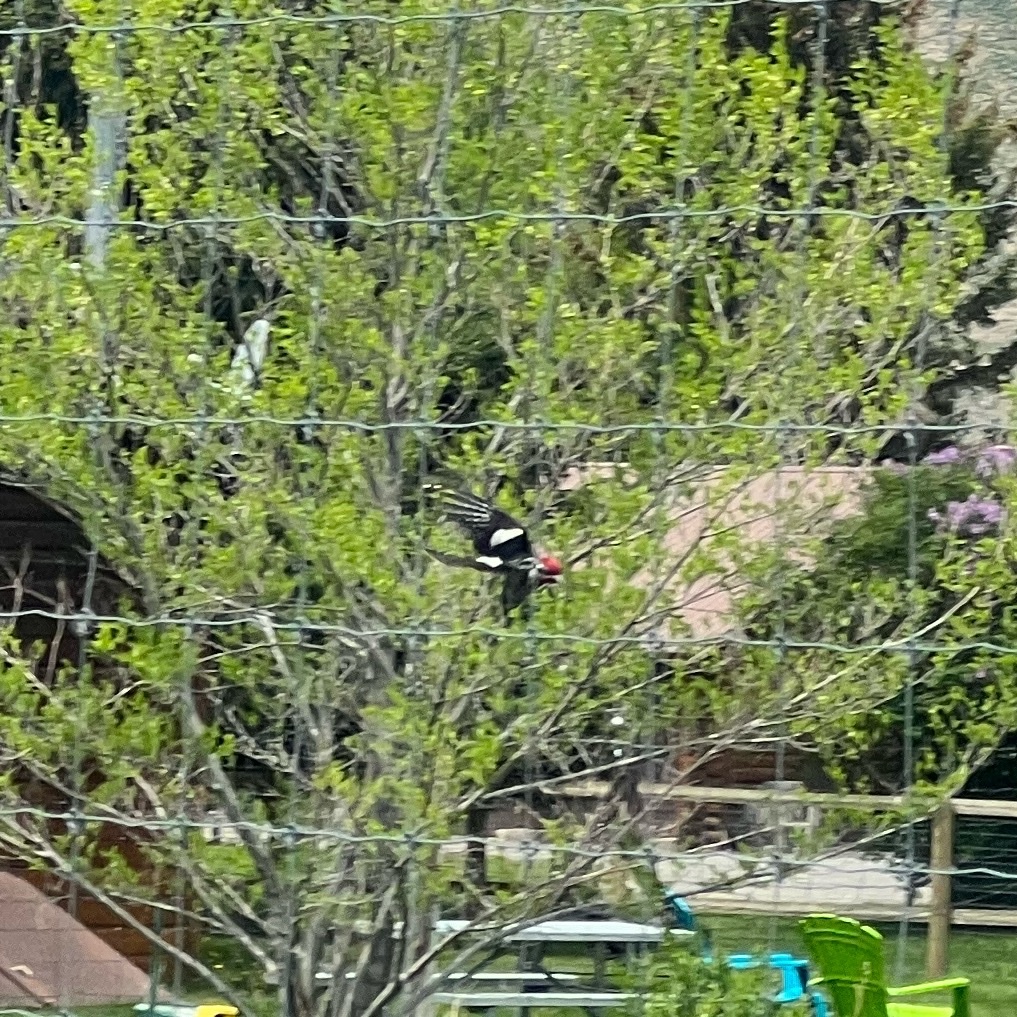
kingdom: Animalia
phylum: Chordata
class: Aves
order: Piciformes
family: Picidae
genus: Sphyrapicus
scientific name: Sphyrapicus nuchalis
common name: Red-naped sapsucker
